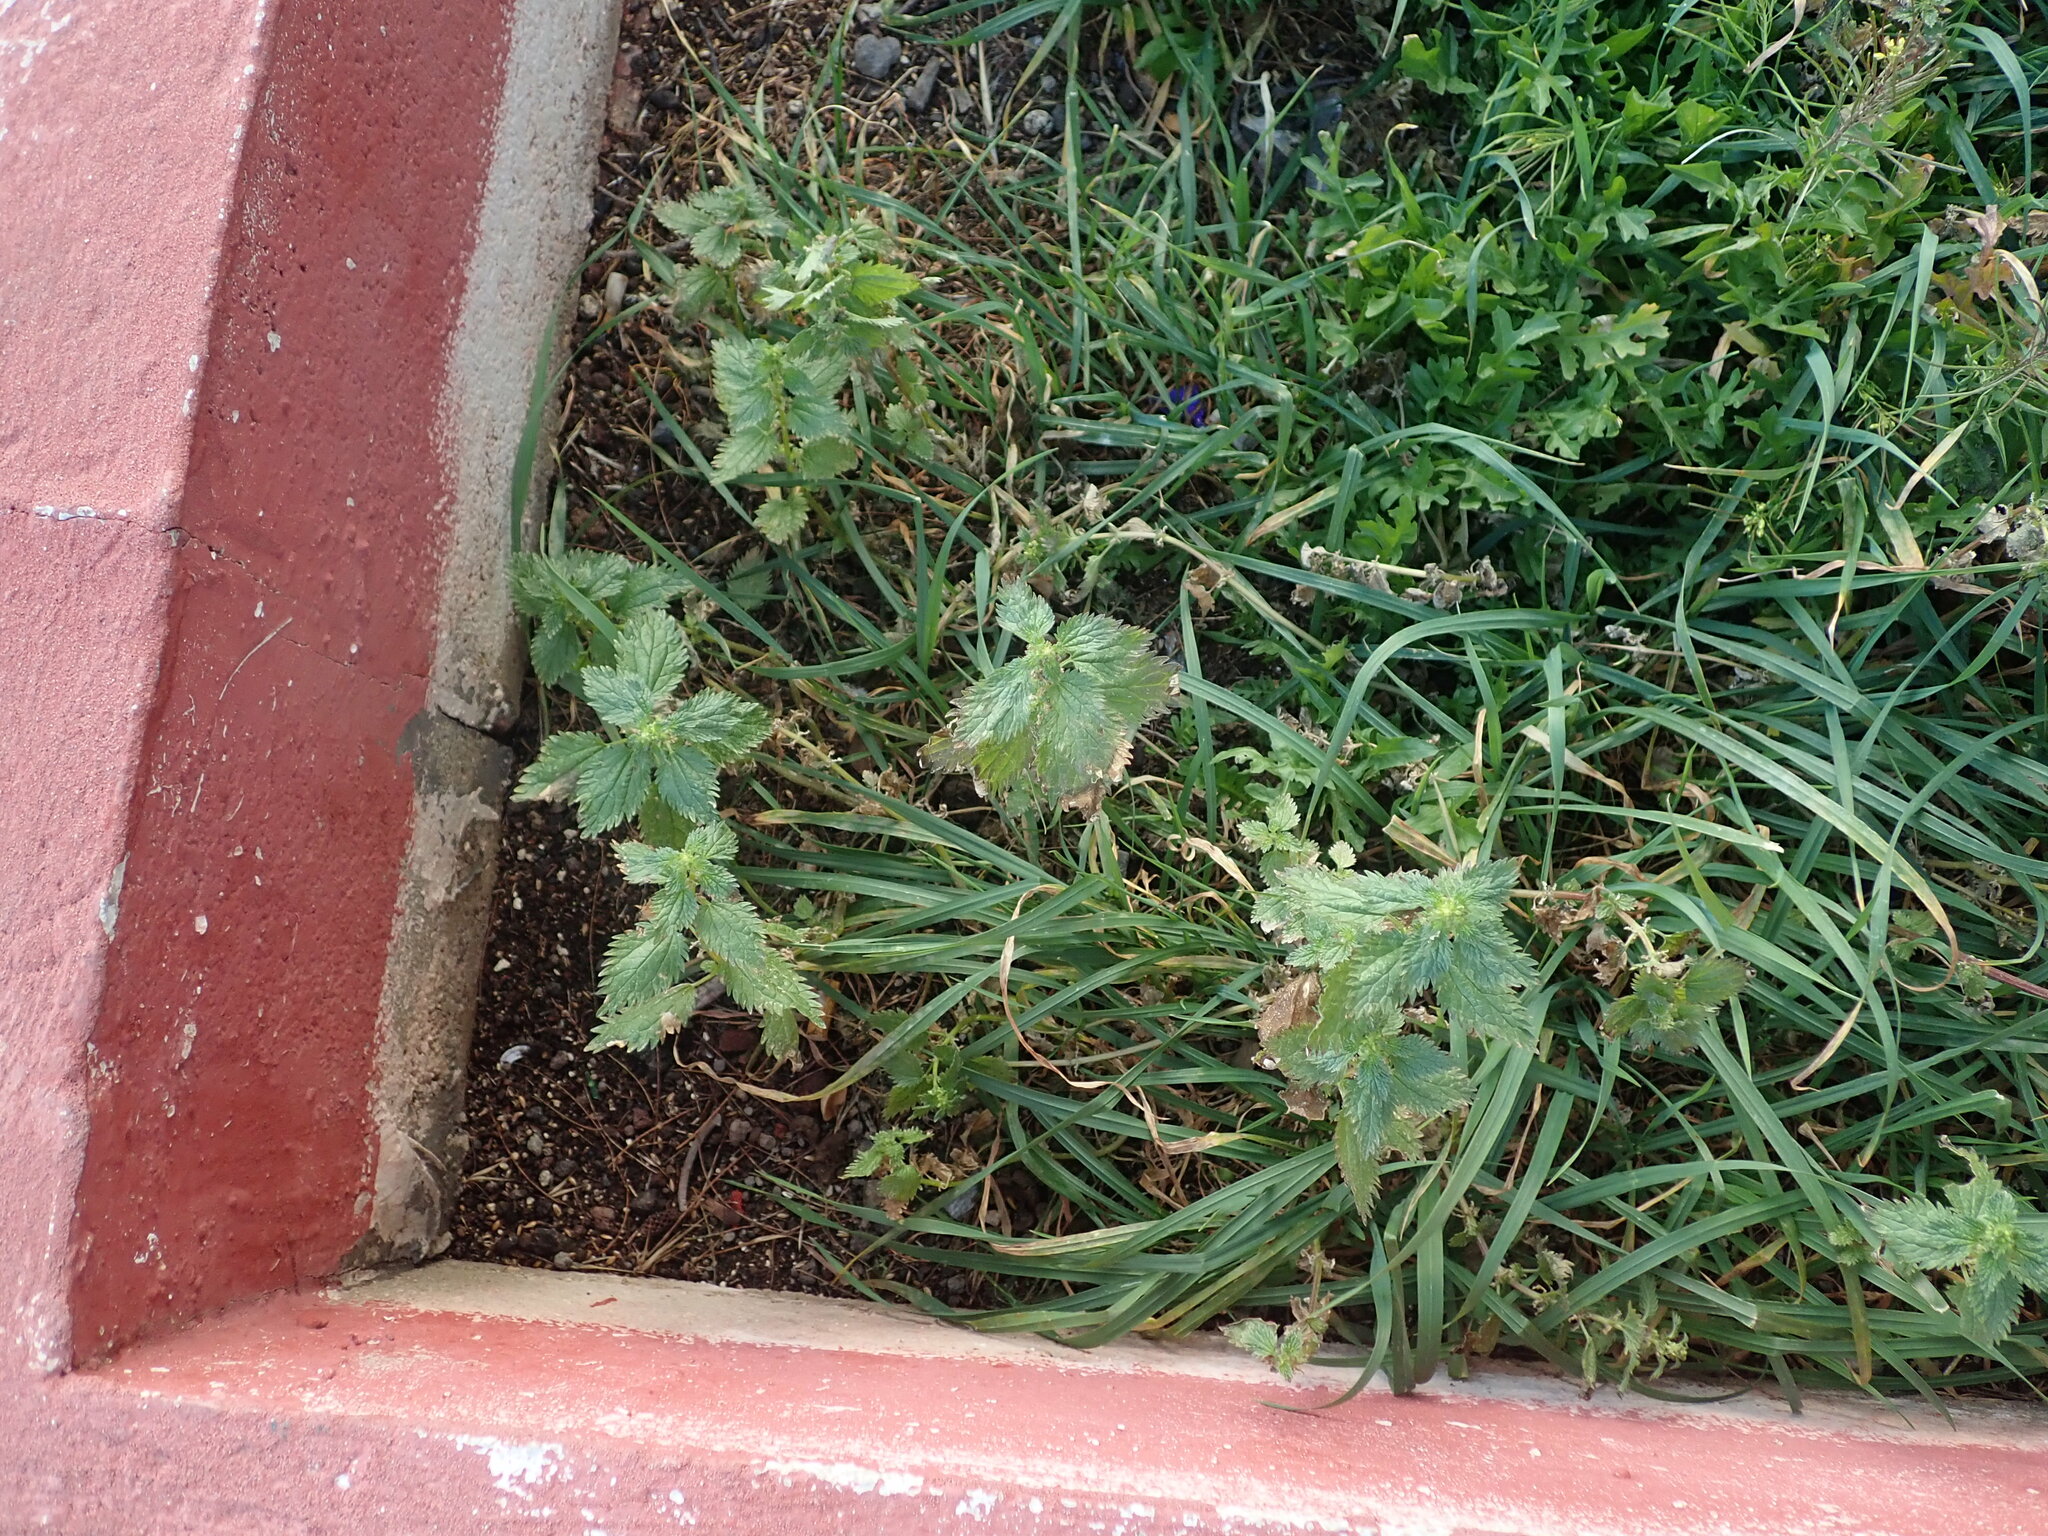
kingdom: Plantae
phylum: Tracheophyta
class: Magnoliopsida
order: Rosales
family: Urticaceae
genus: Urtica
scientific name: Urtica urens
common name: Dwarf nettle
